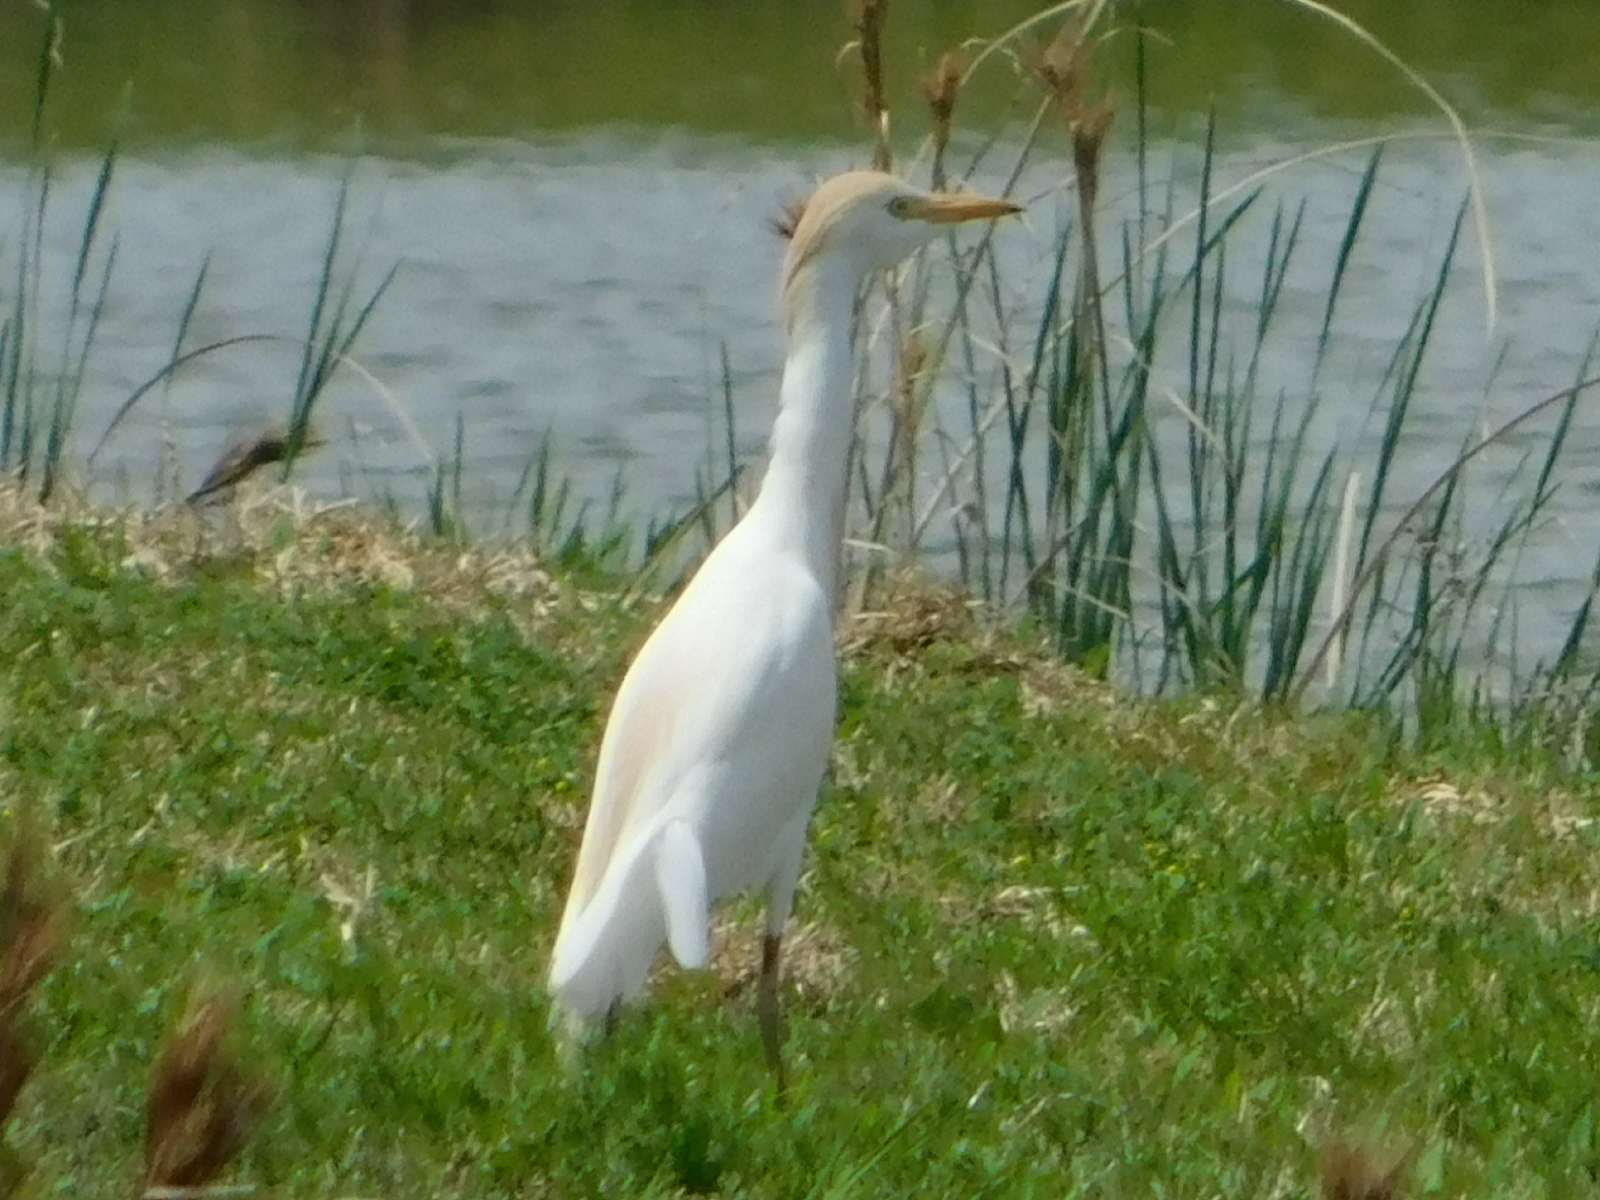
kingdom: Animalia
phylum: Chordata
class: Aves
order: Pelecaniformes
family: Ardeidae
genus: Bubulcus
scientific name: Bubulcus ibis
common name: Cattle egret
